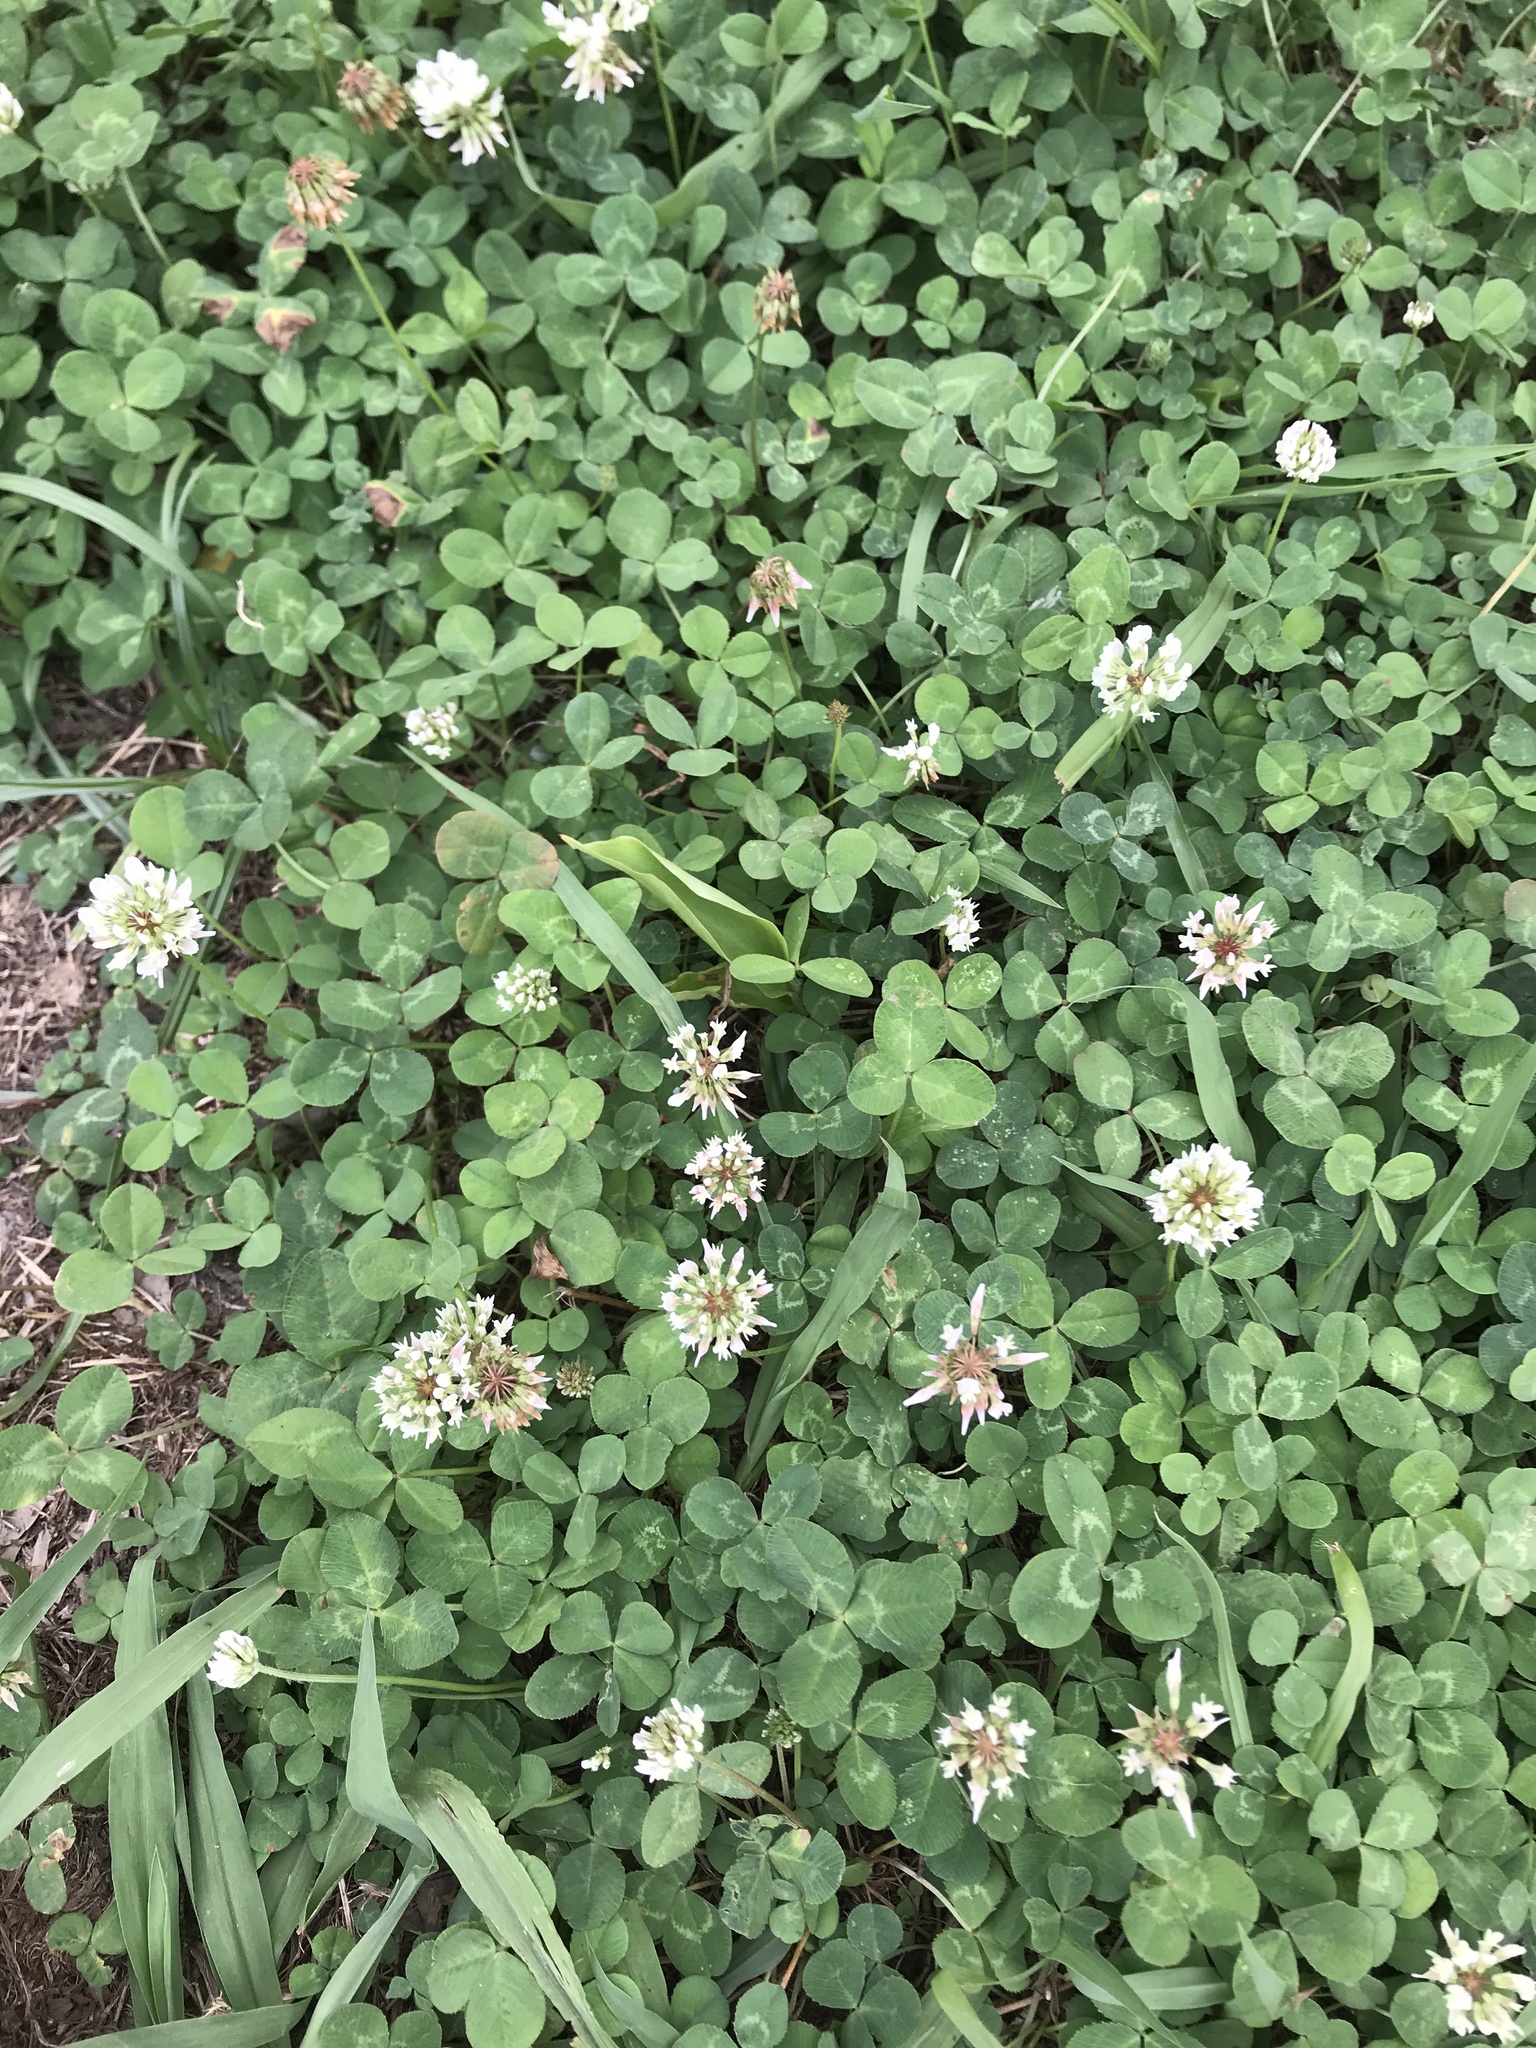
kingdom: Plantae
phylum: Tracheophyta
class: Magnoliopsida
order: Fabales
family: Fabaceae
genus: Trifolium
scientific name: Trifolium repens
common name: White clover
